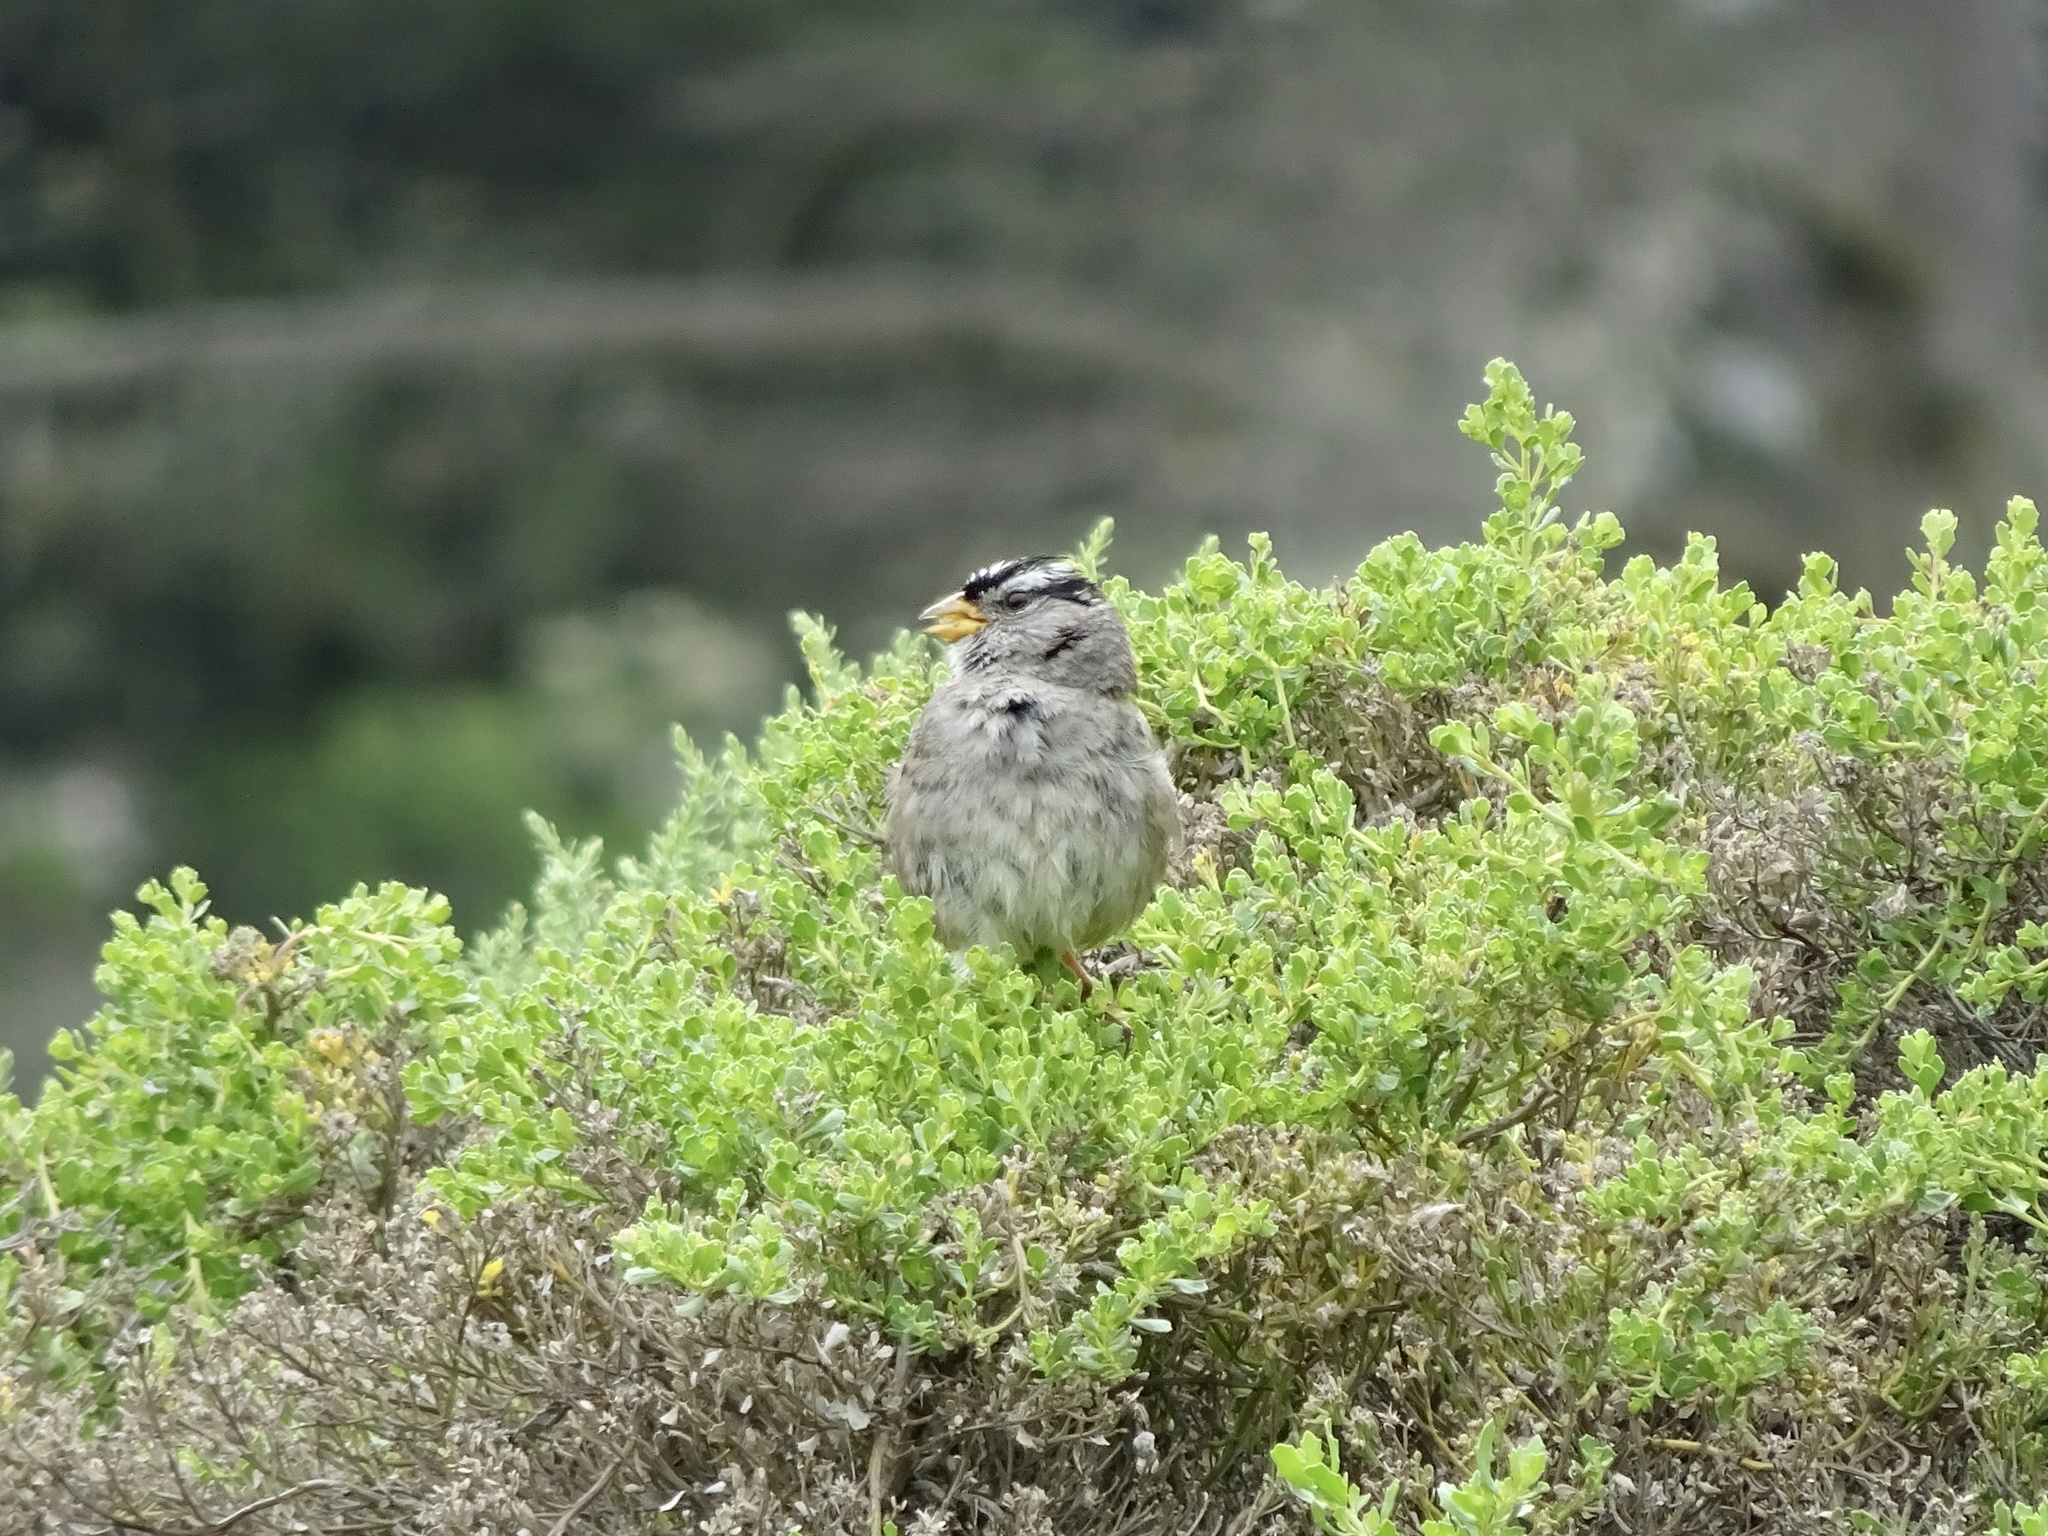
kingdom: Animalia
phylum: Chordata
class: Aves
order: Passeriformes
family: Passerellidae
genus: Zonotrichia
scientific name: Zonotrichia leucophrys
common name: White-crowned sparrow
